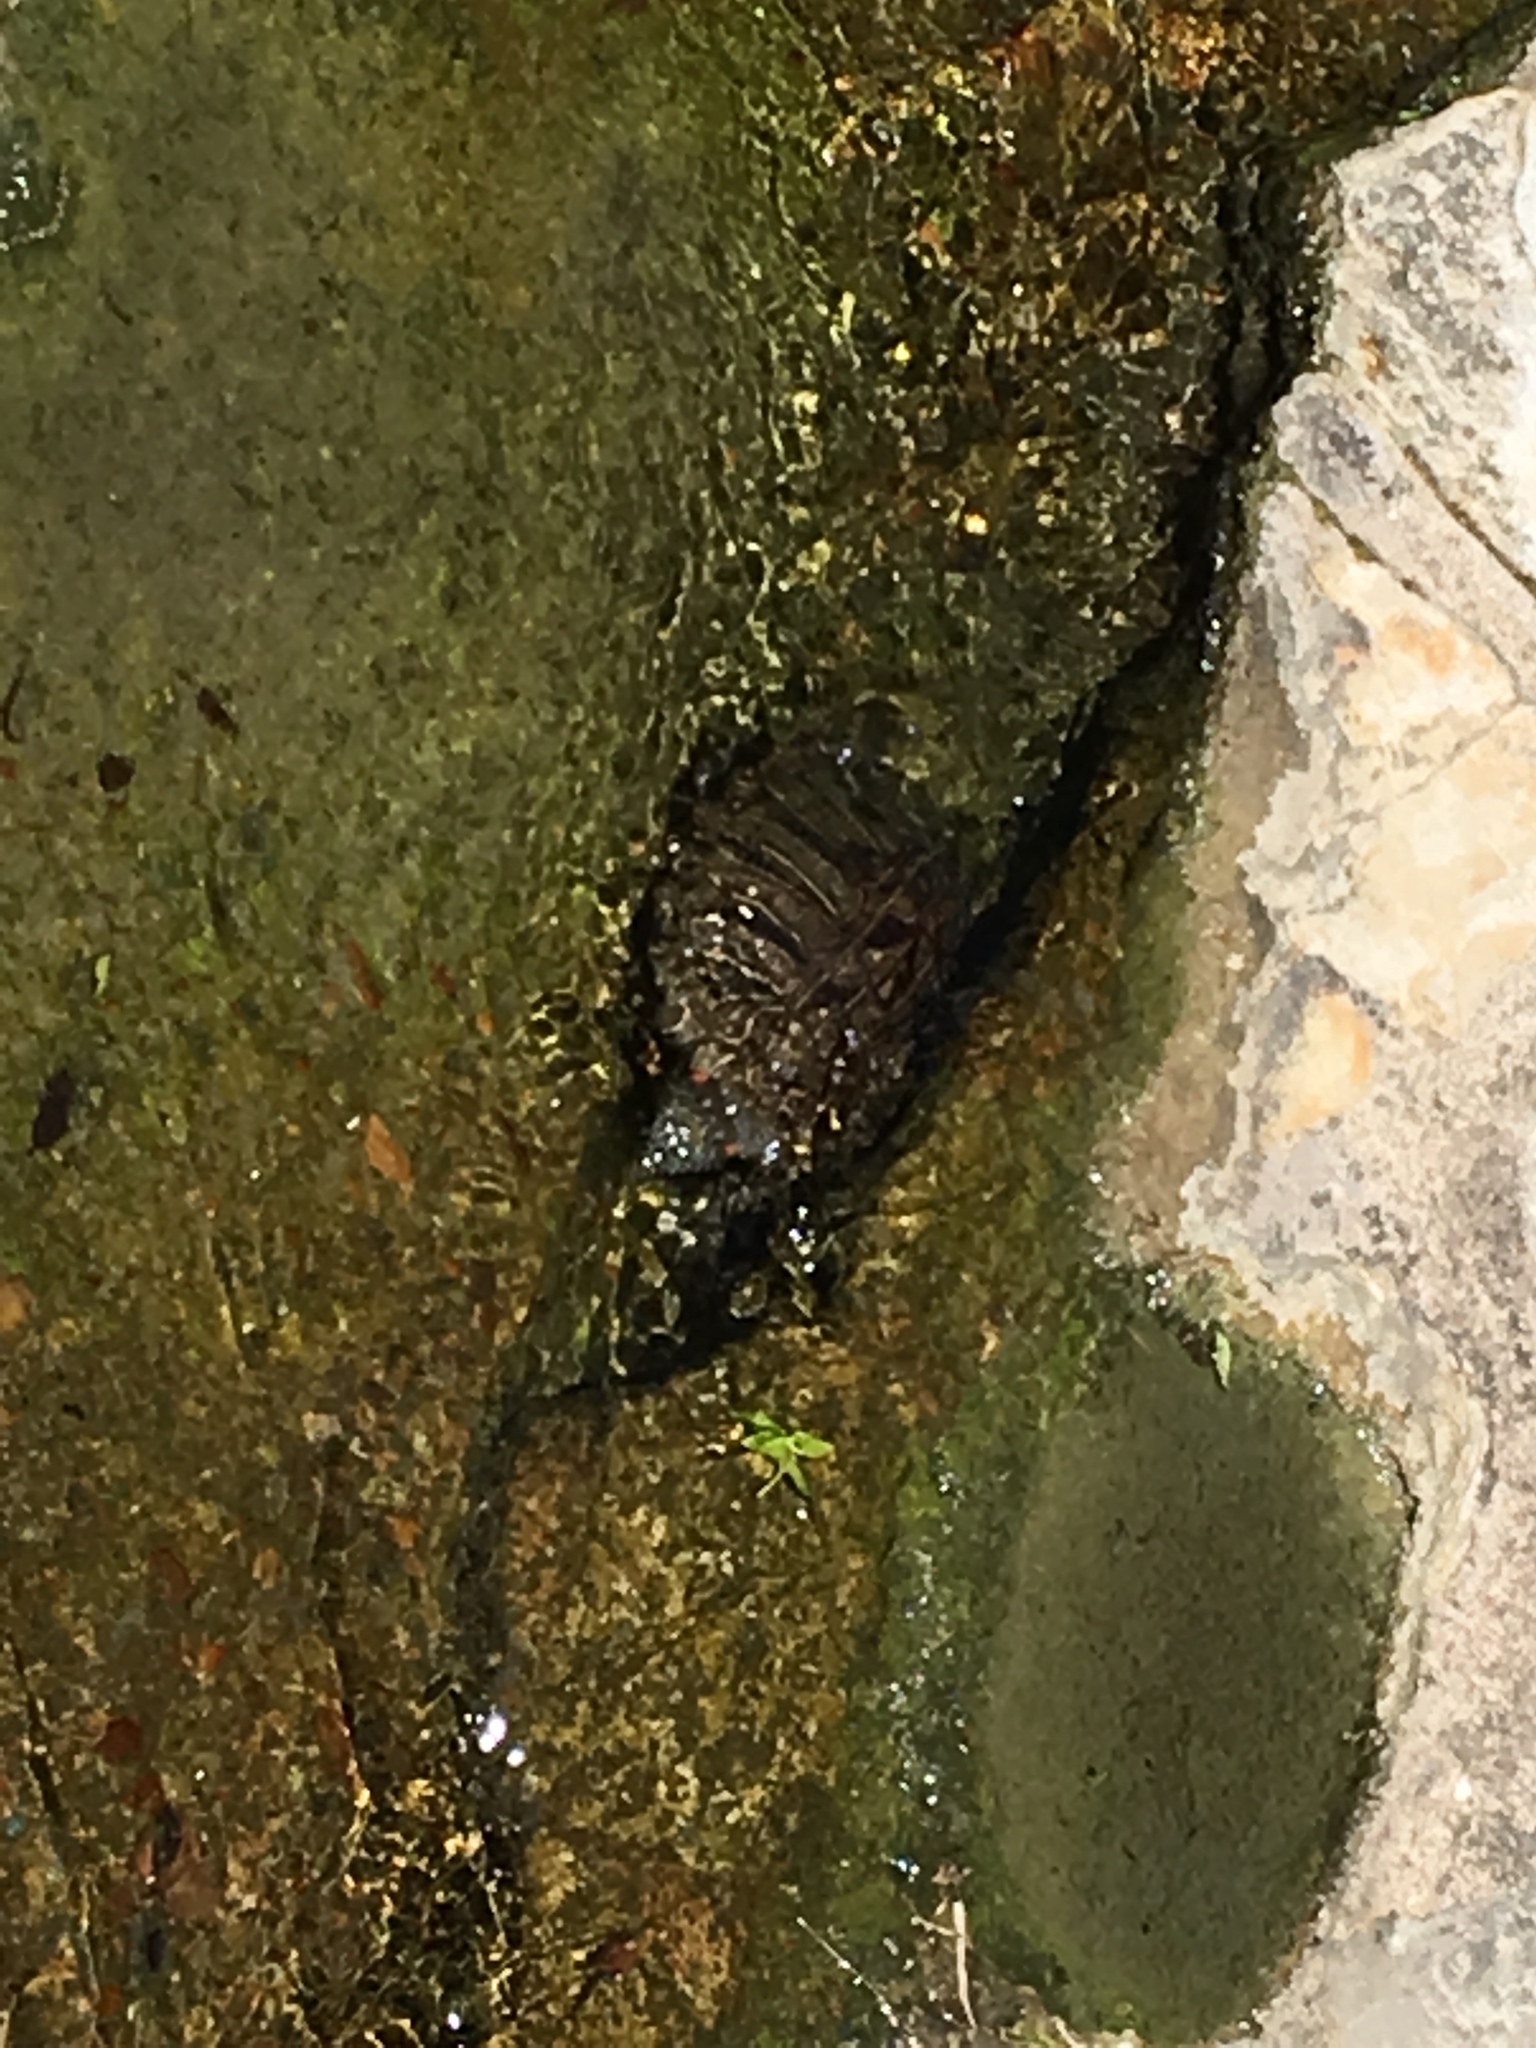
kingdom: Animalia
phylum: Chordata
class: Testudines
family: Emydidae
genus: Trachemys
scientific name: Trachemys scripta
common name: Slider
